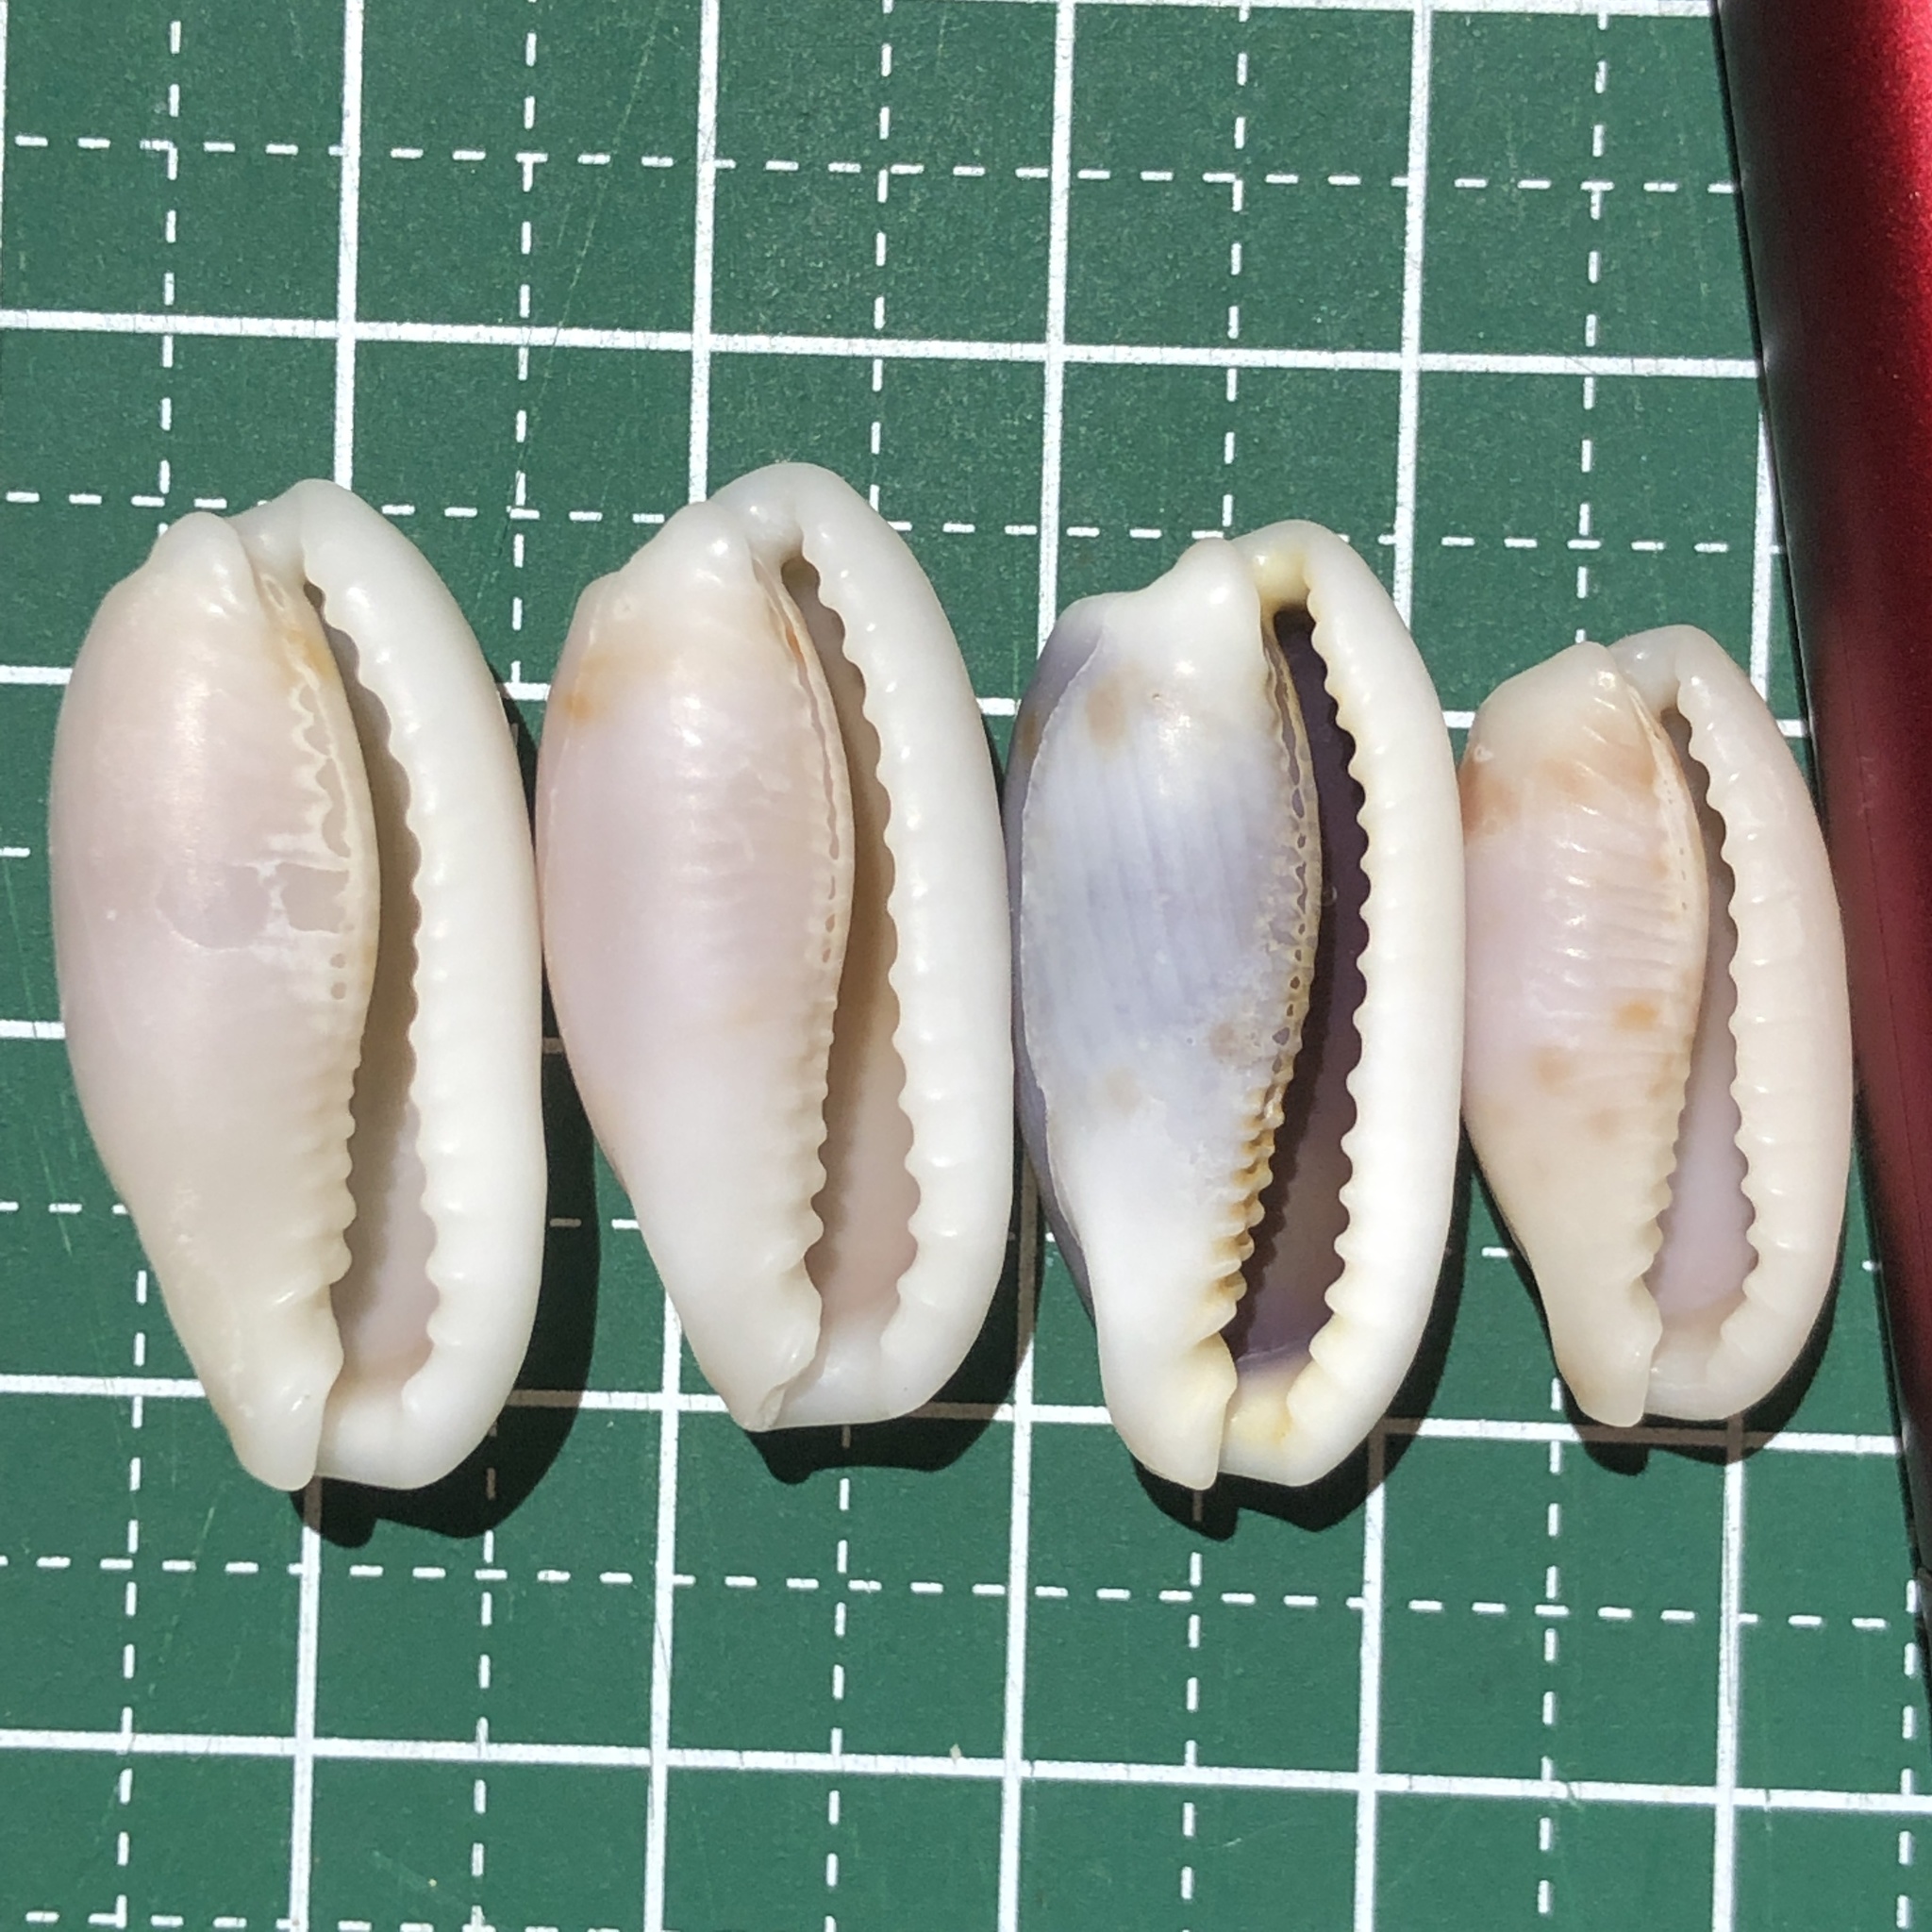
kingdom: Animalia
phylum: Mollusca
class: Gastropoda
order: Littorinimorpha
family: Cypraeidae
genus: Erronea
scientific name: Erronea cylindrica
